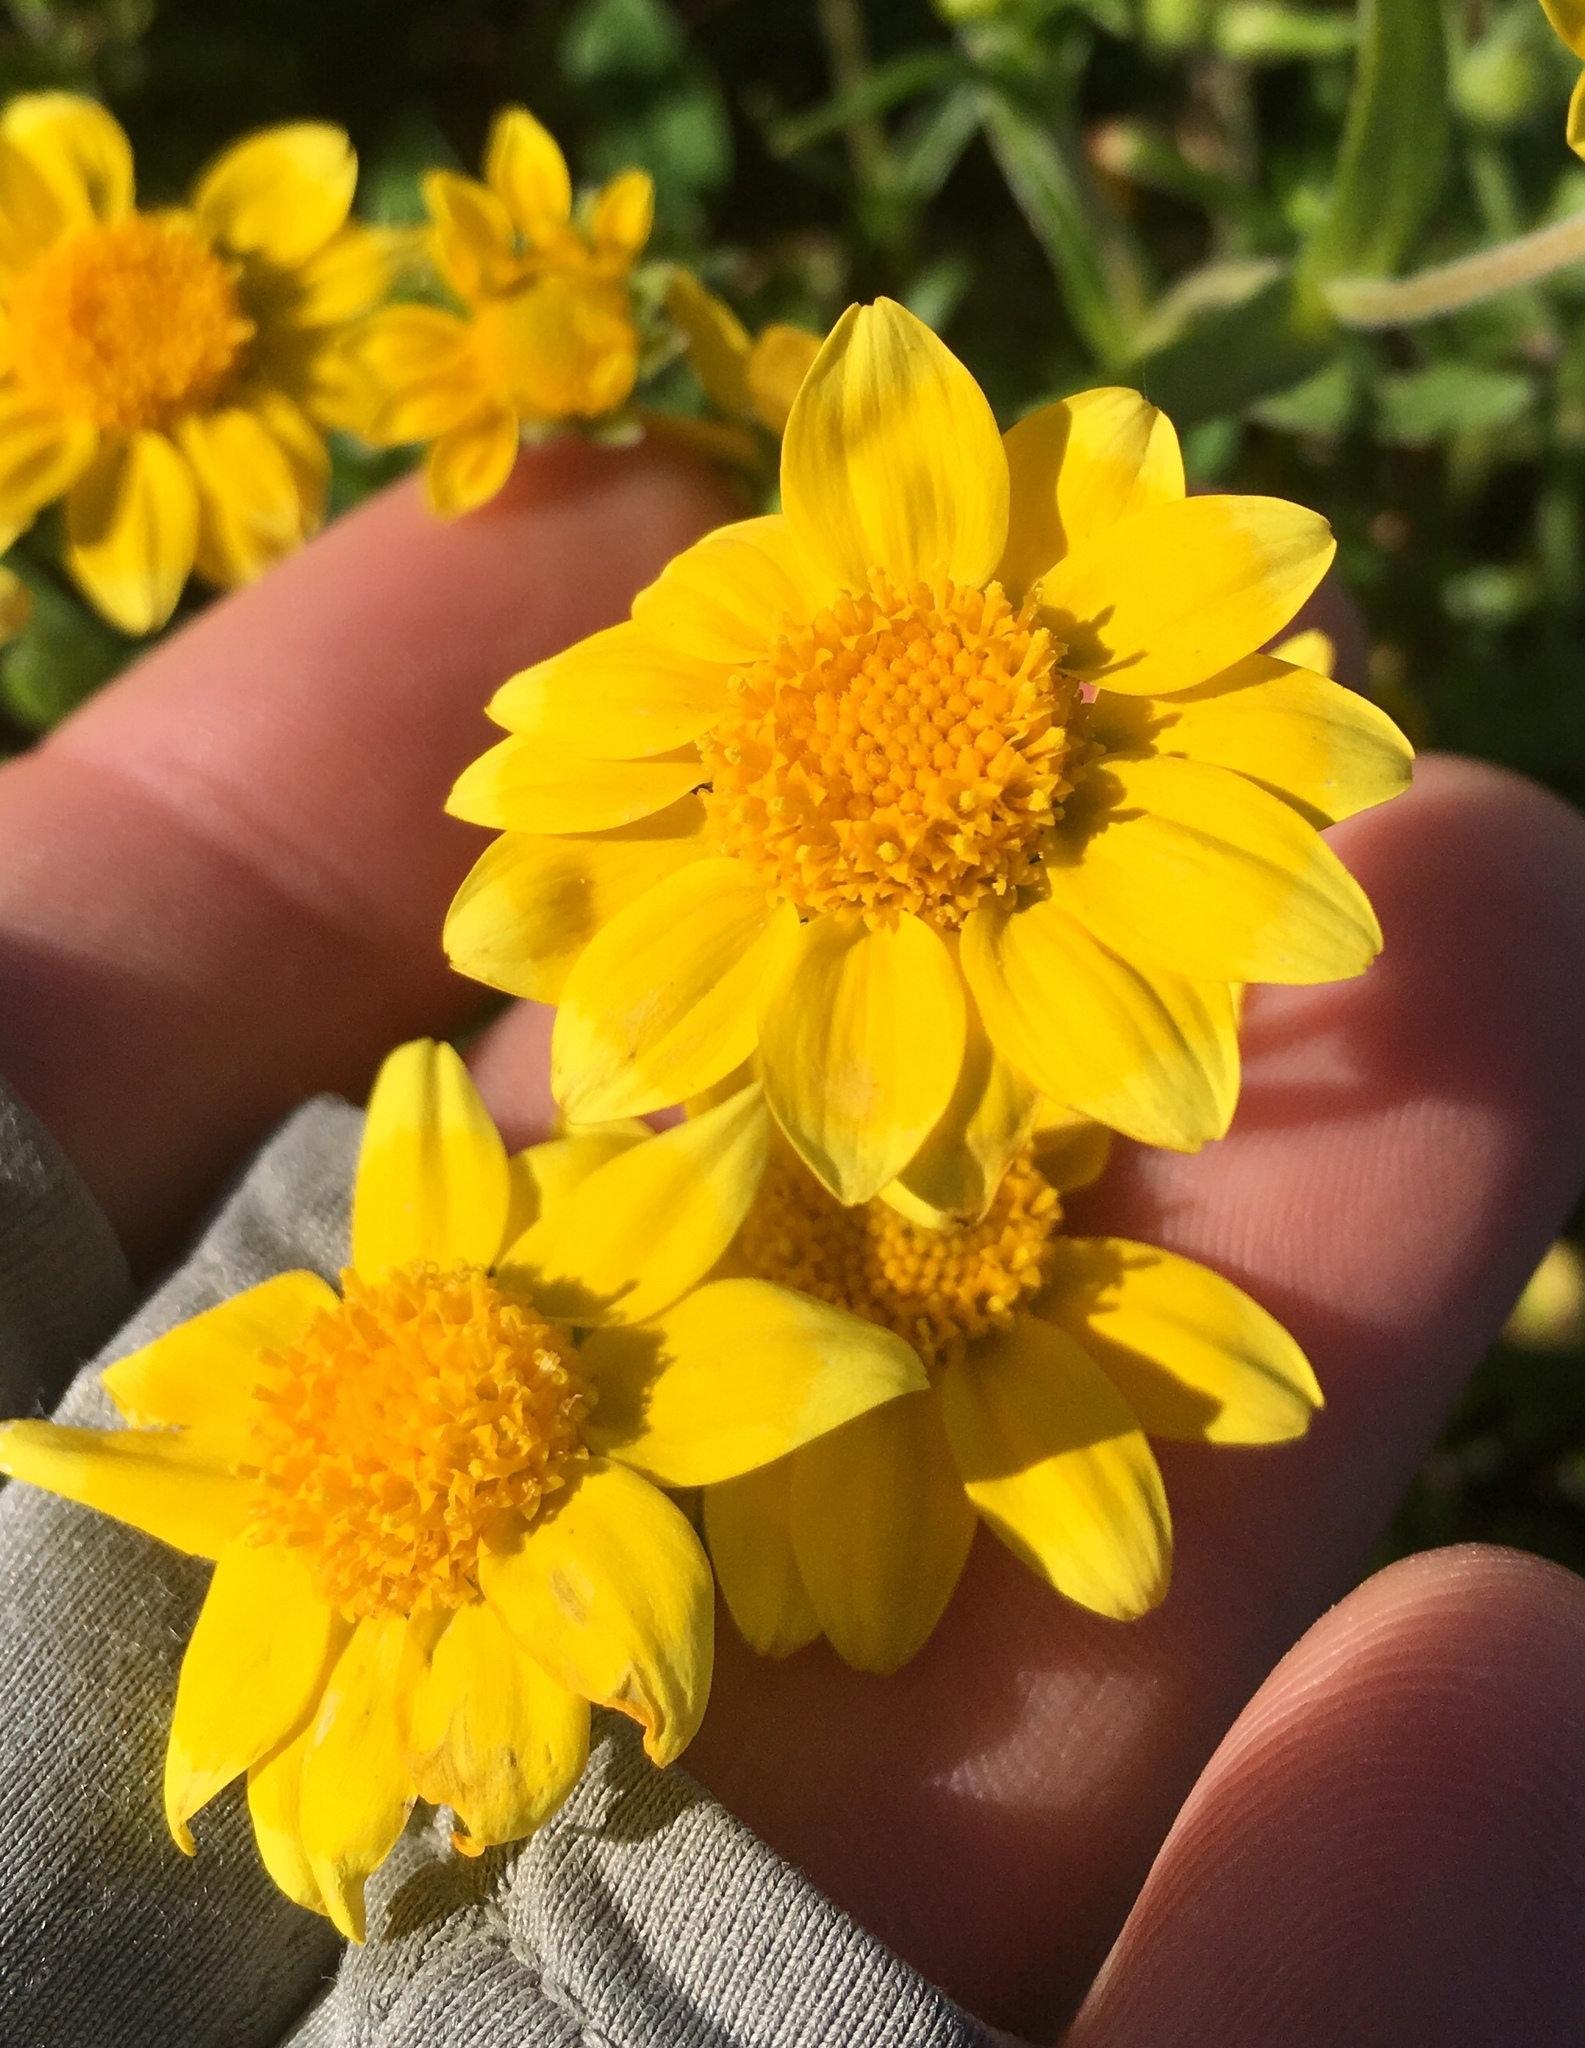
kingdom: Plantae
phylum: Tracheophyta
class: Magnoliopsida
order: Asterales
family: Asteraceae
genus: Lasthenia
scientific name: Lasthenia gracilis
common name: Common goldfields
